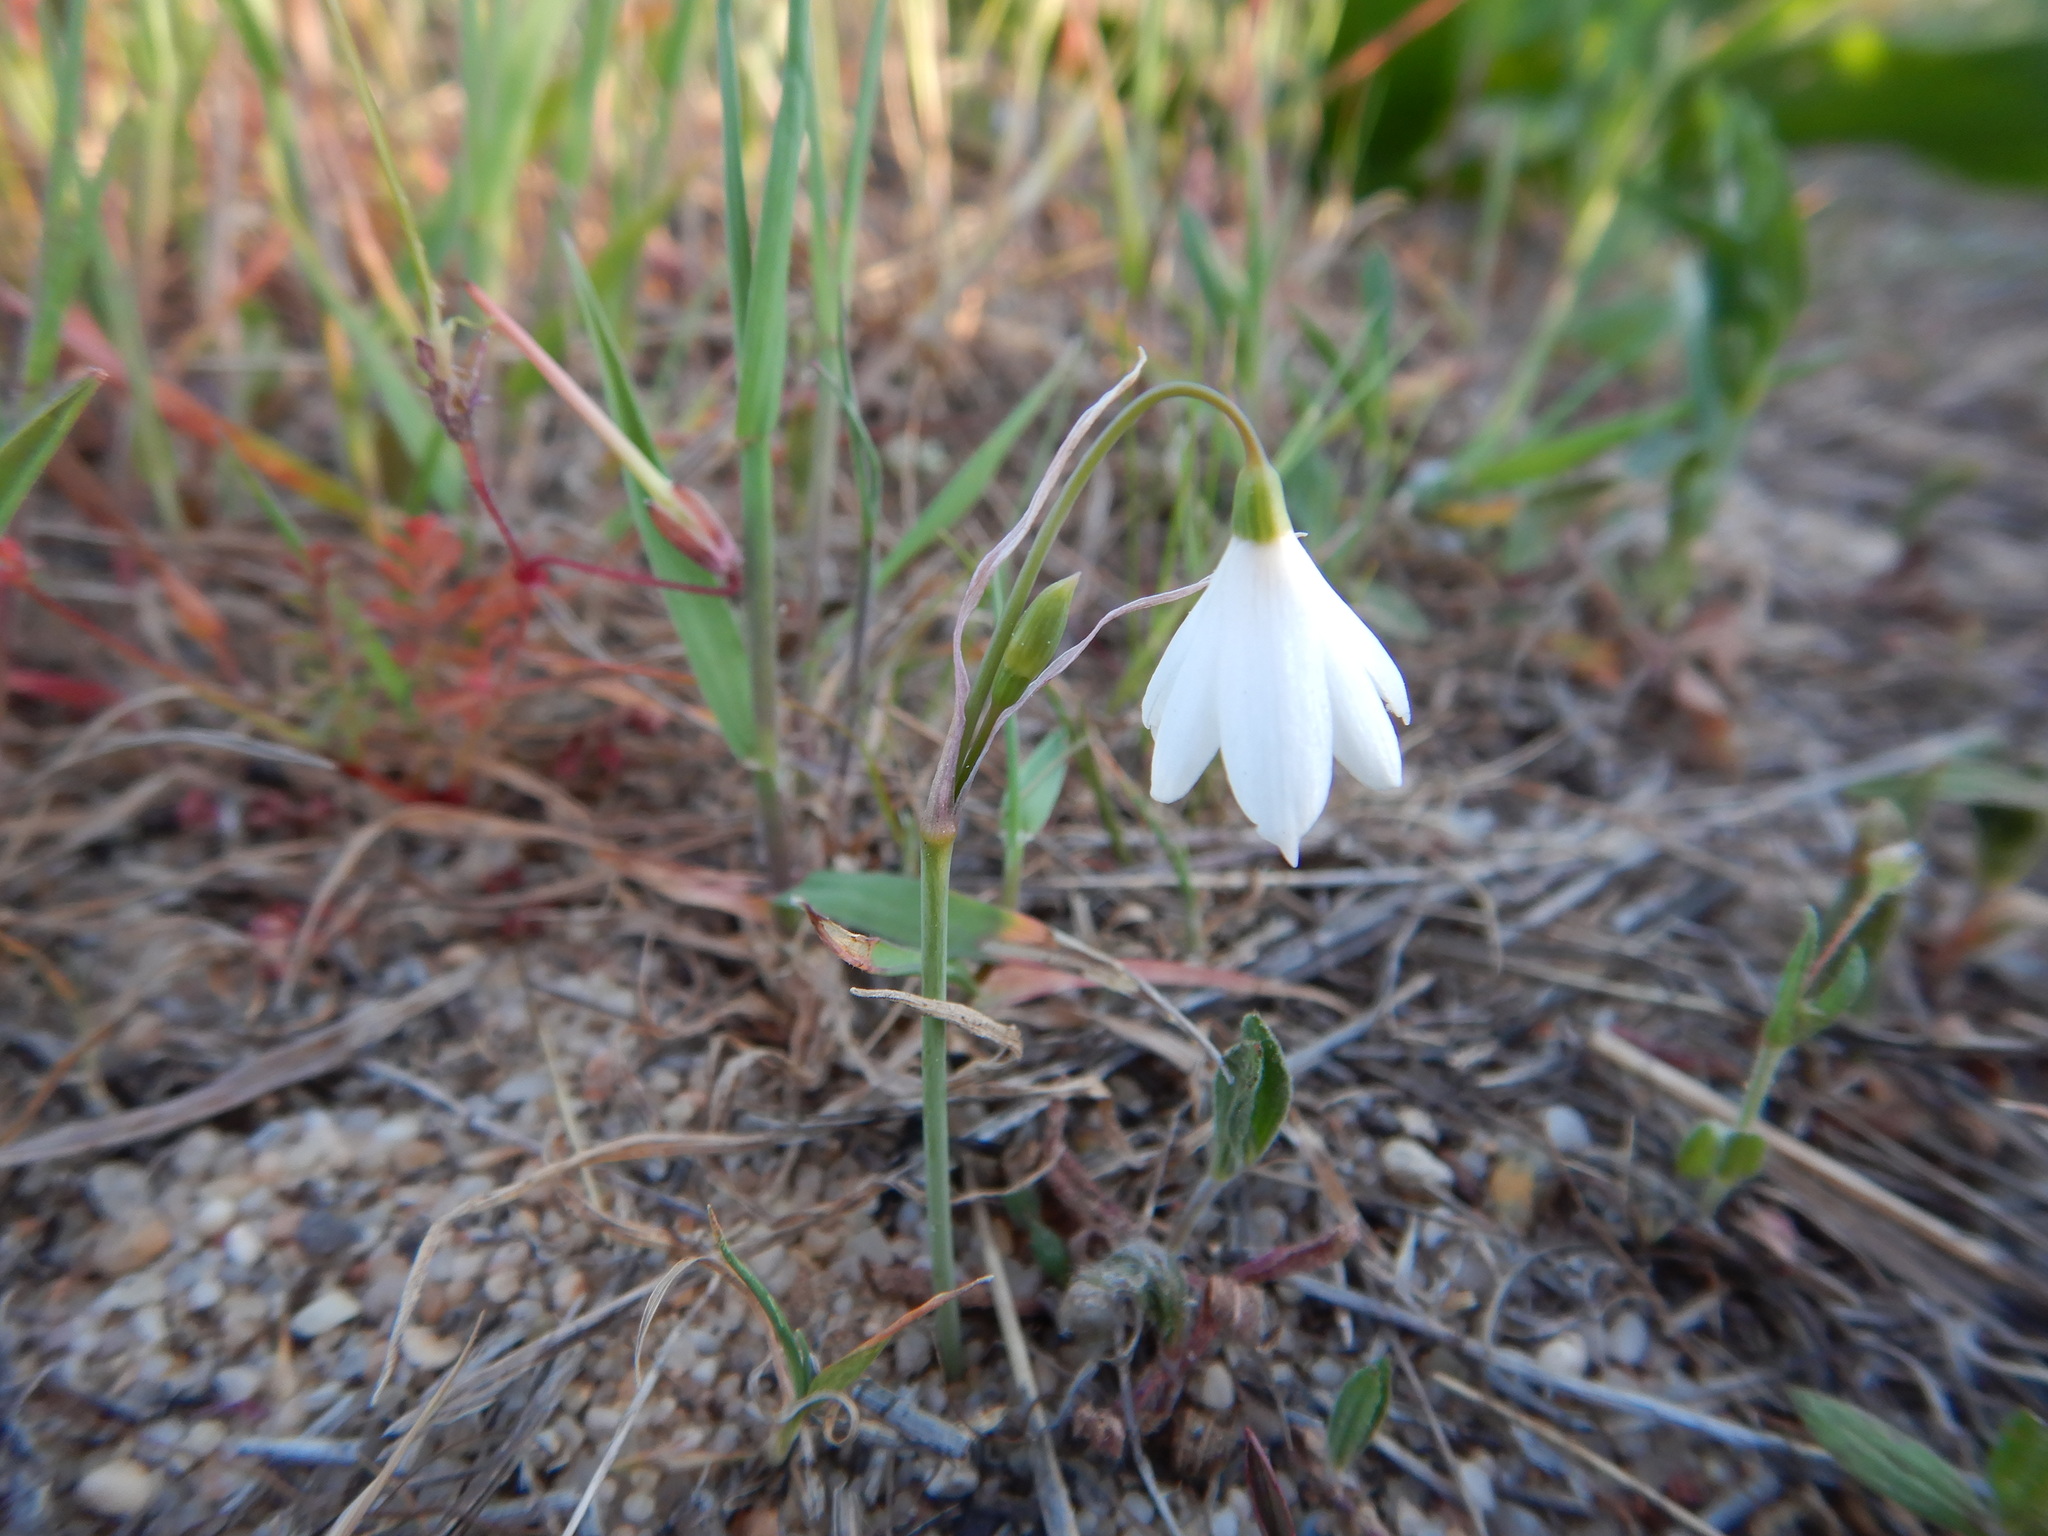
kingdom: Plantae
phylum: Tracheophyta
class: Liliopsida
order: Asparagales
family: Amaryllidaceae
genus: Acis
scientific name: Acis trichophylla
